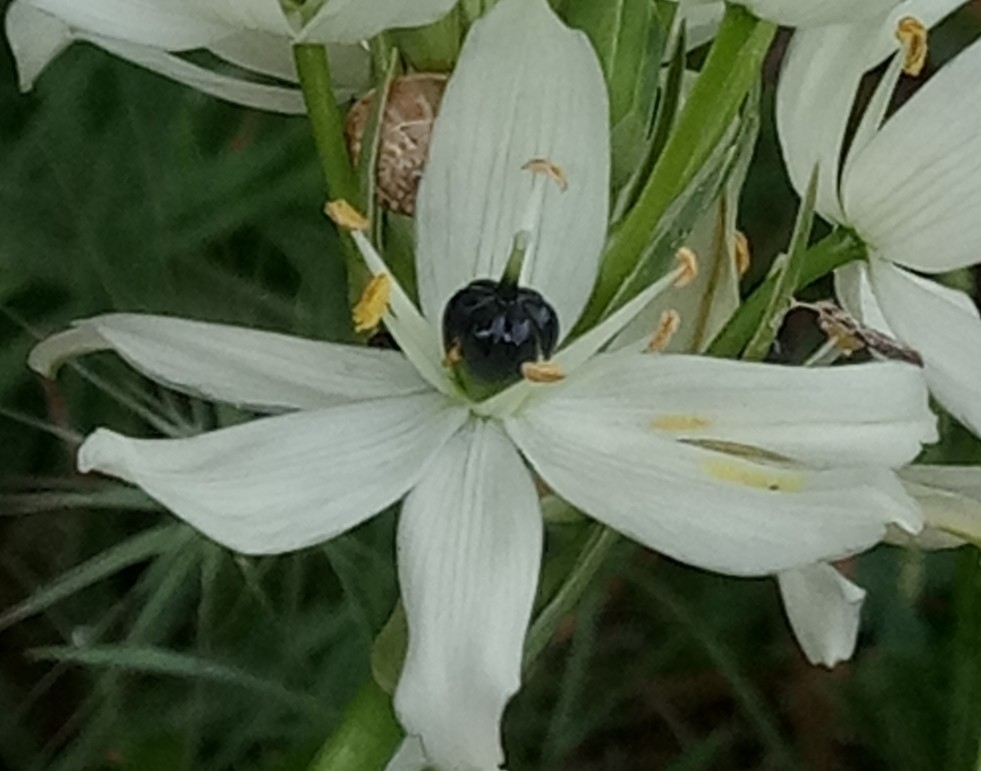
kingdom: Plantae
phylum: Tracheophyta
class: Liliopsida
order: Asparagales
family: Asparagaceae
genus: Ornithogalum
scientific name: Ornithogalum arabicum
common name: Arabian starflower
